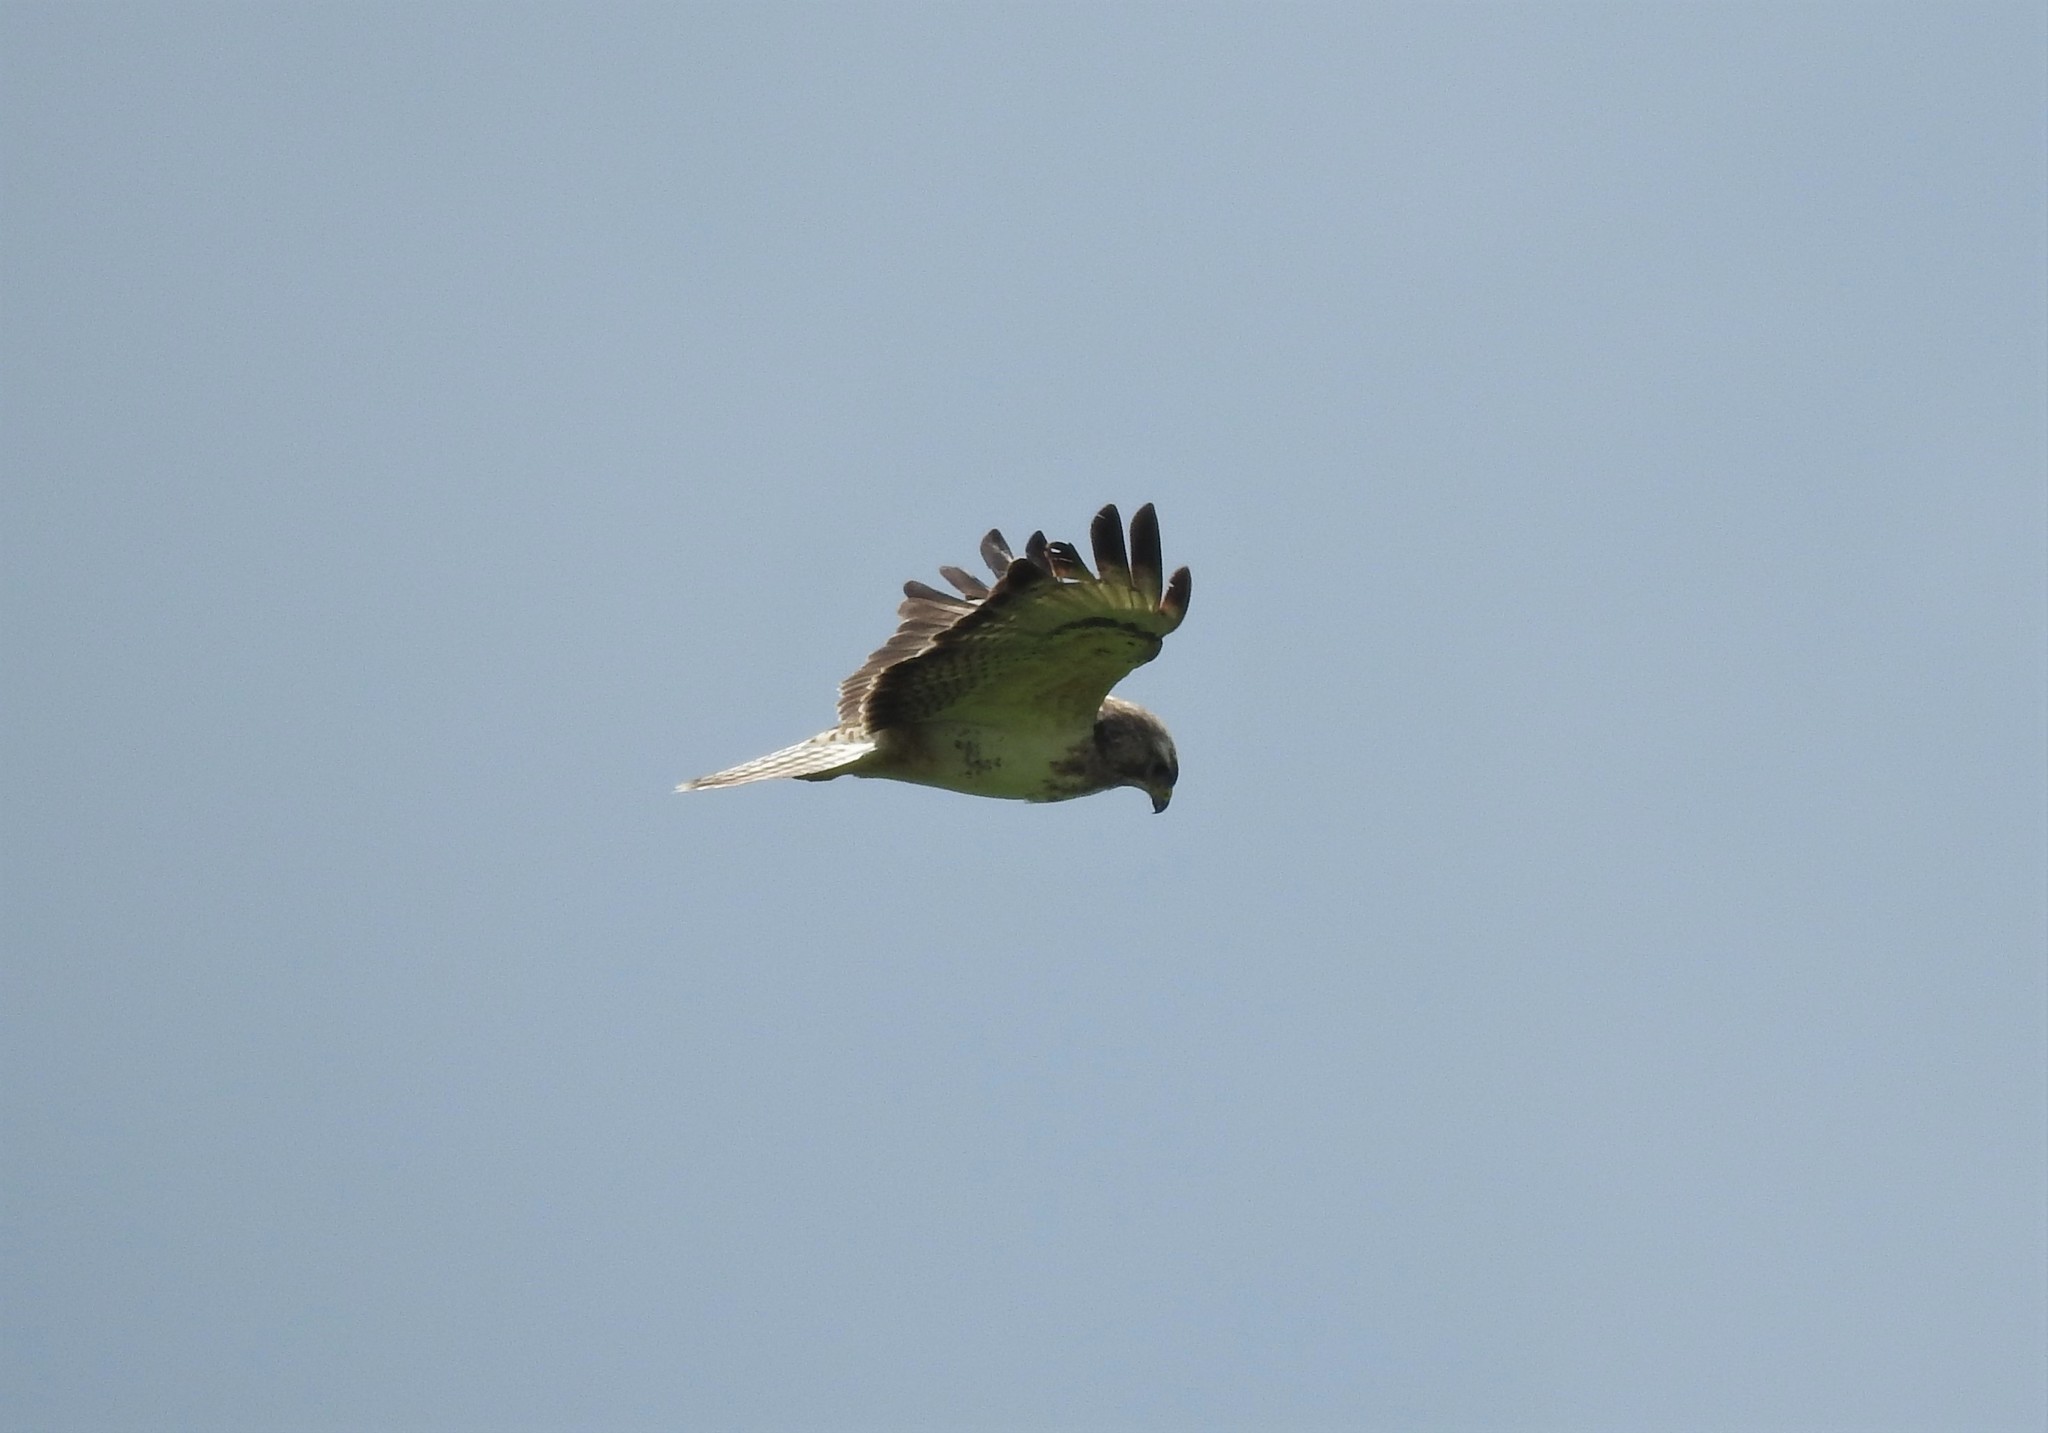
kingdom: Animalia
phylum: Chordata
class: Aves
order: Accipitriformes
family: Accipitridae
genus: Buteo
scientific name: Buteo buteo
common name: Common buzzard
